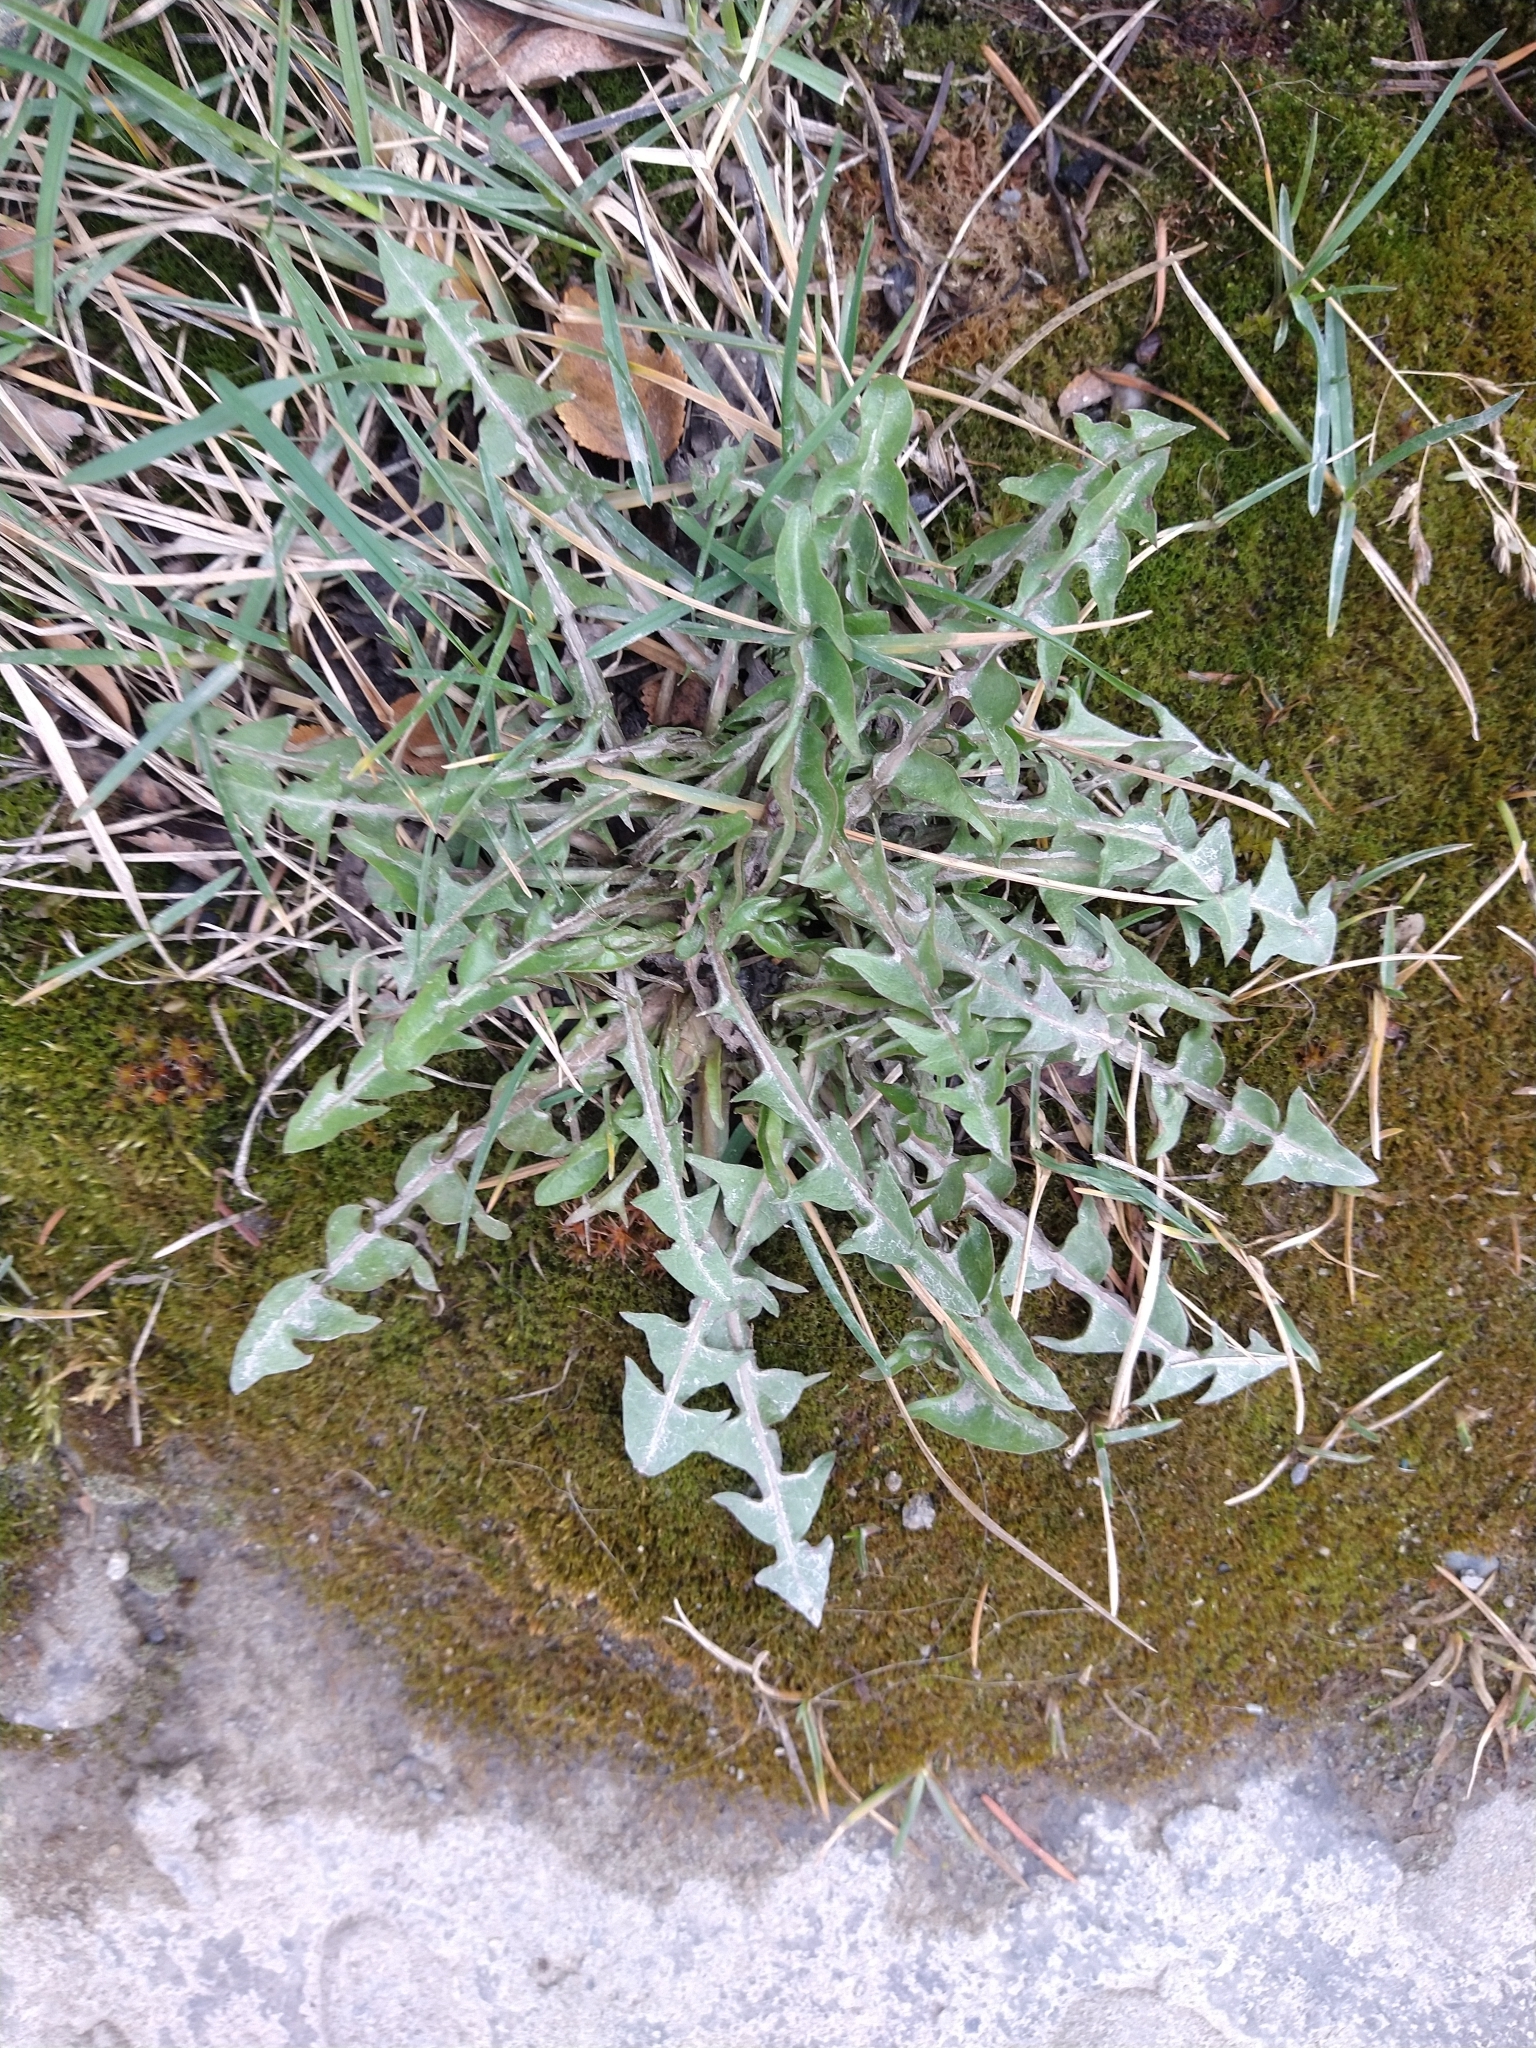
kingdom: Plantae
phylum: Tracheophyta
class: Magnoliopsida
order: Asterales
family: Asteraceae
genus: Taraxacum
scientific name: Taraxacum officinale
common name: Common dandelion
